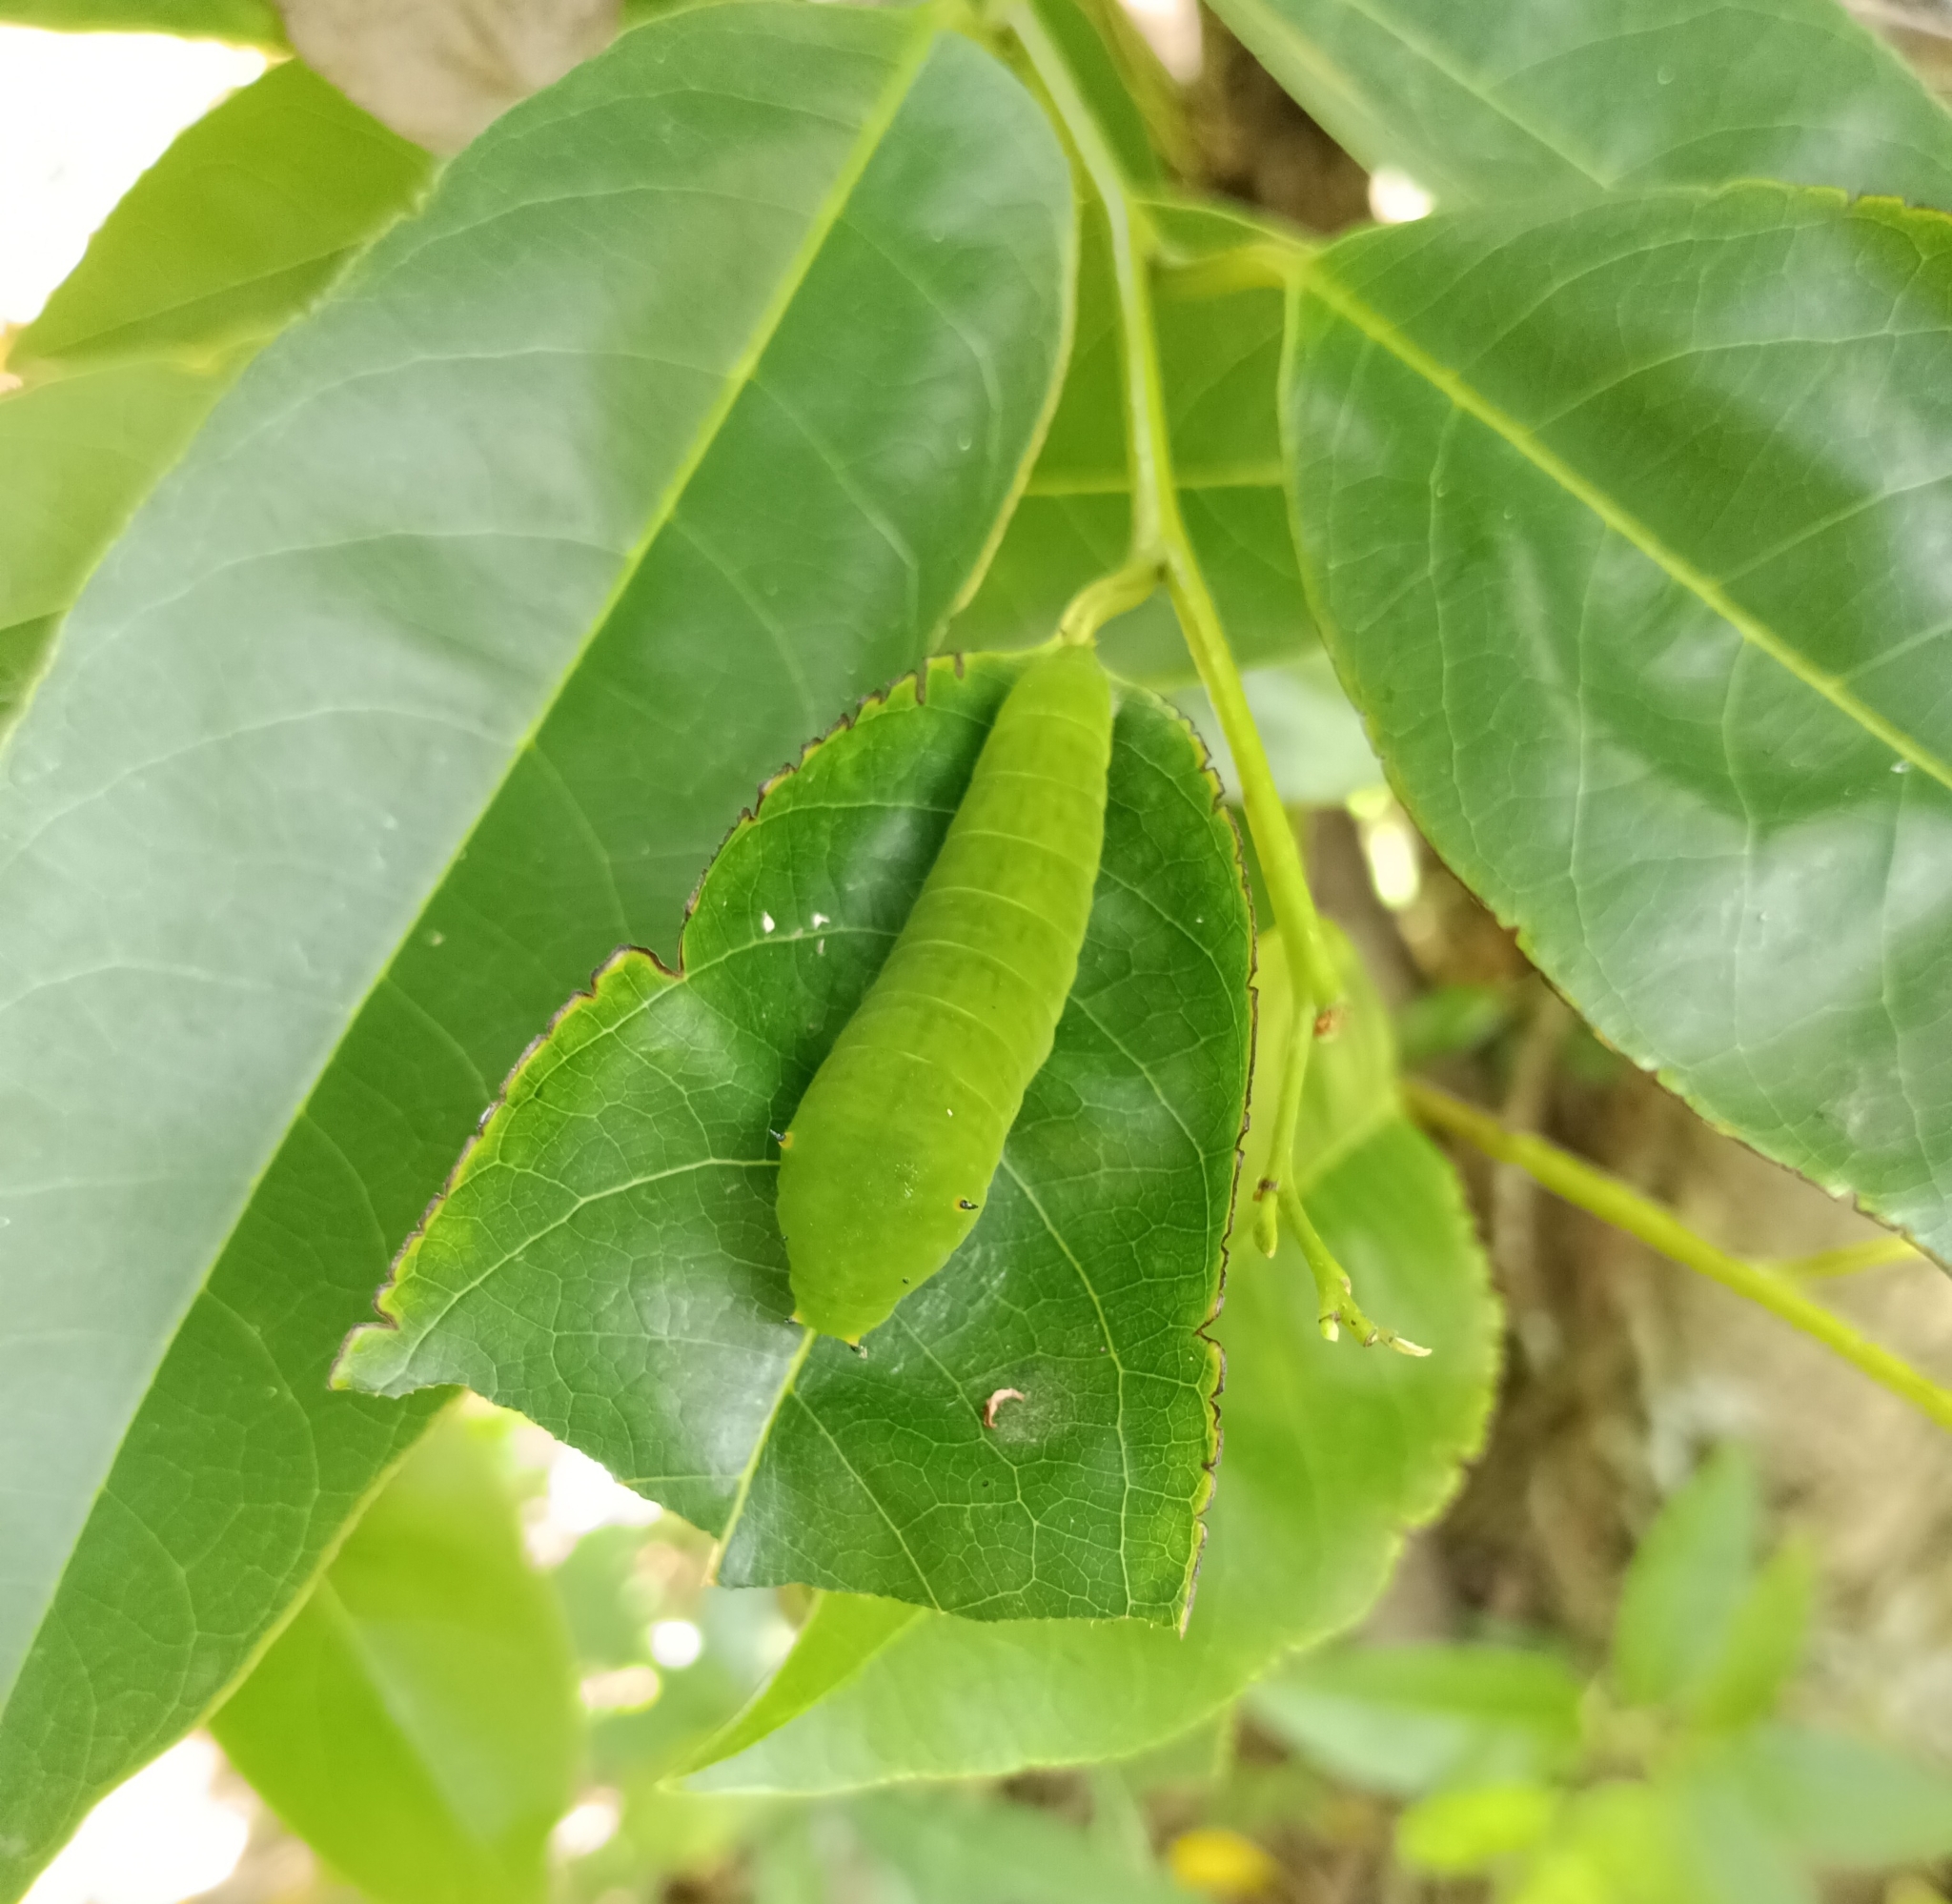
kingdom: Animalia
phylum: Arthropoda
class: Insecta
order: Lepidoptera
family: Papilionidae
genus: Graphium
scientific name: Graphium agamemnon
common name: Tailed jay
